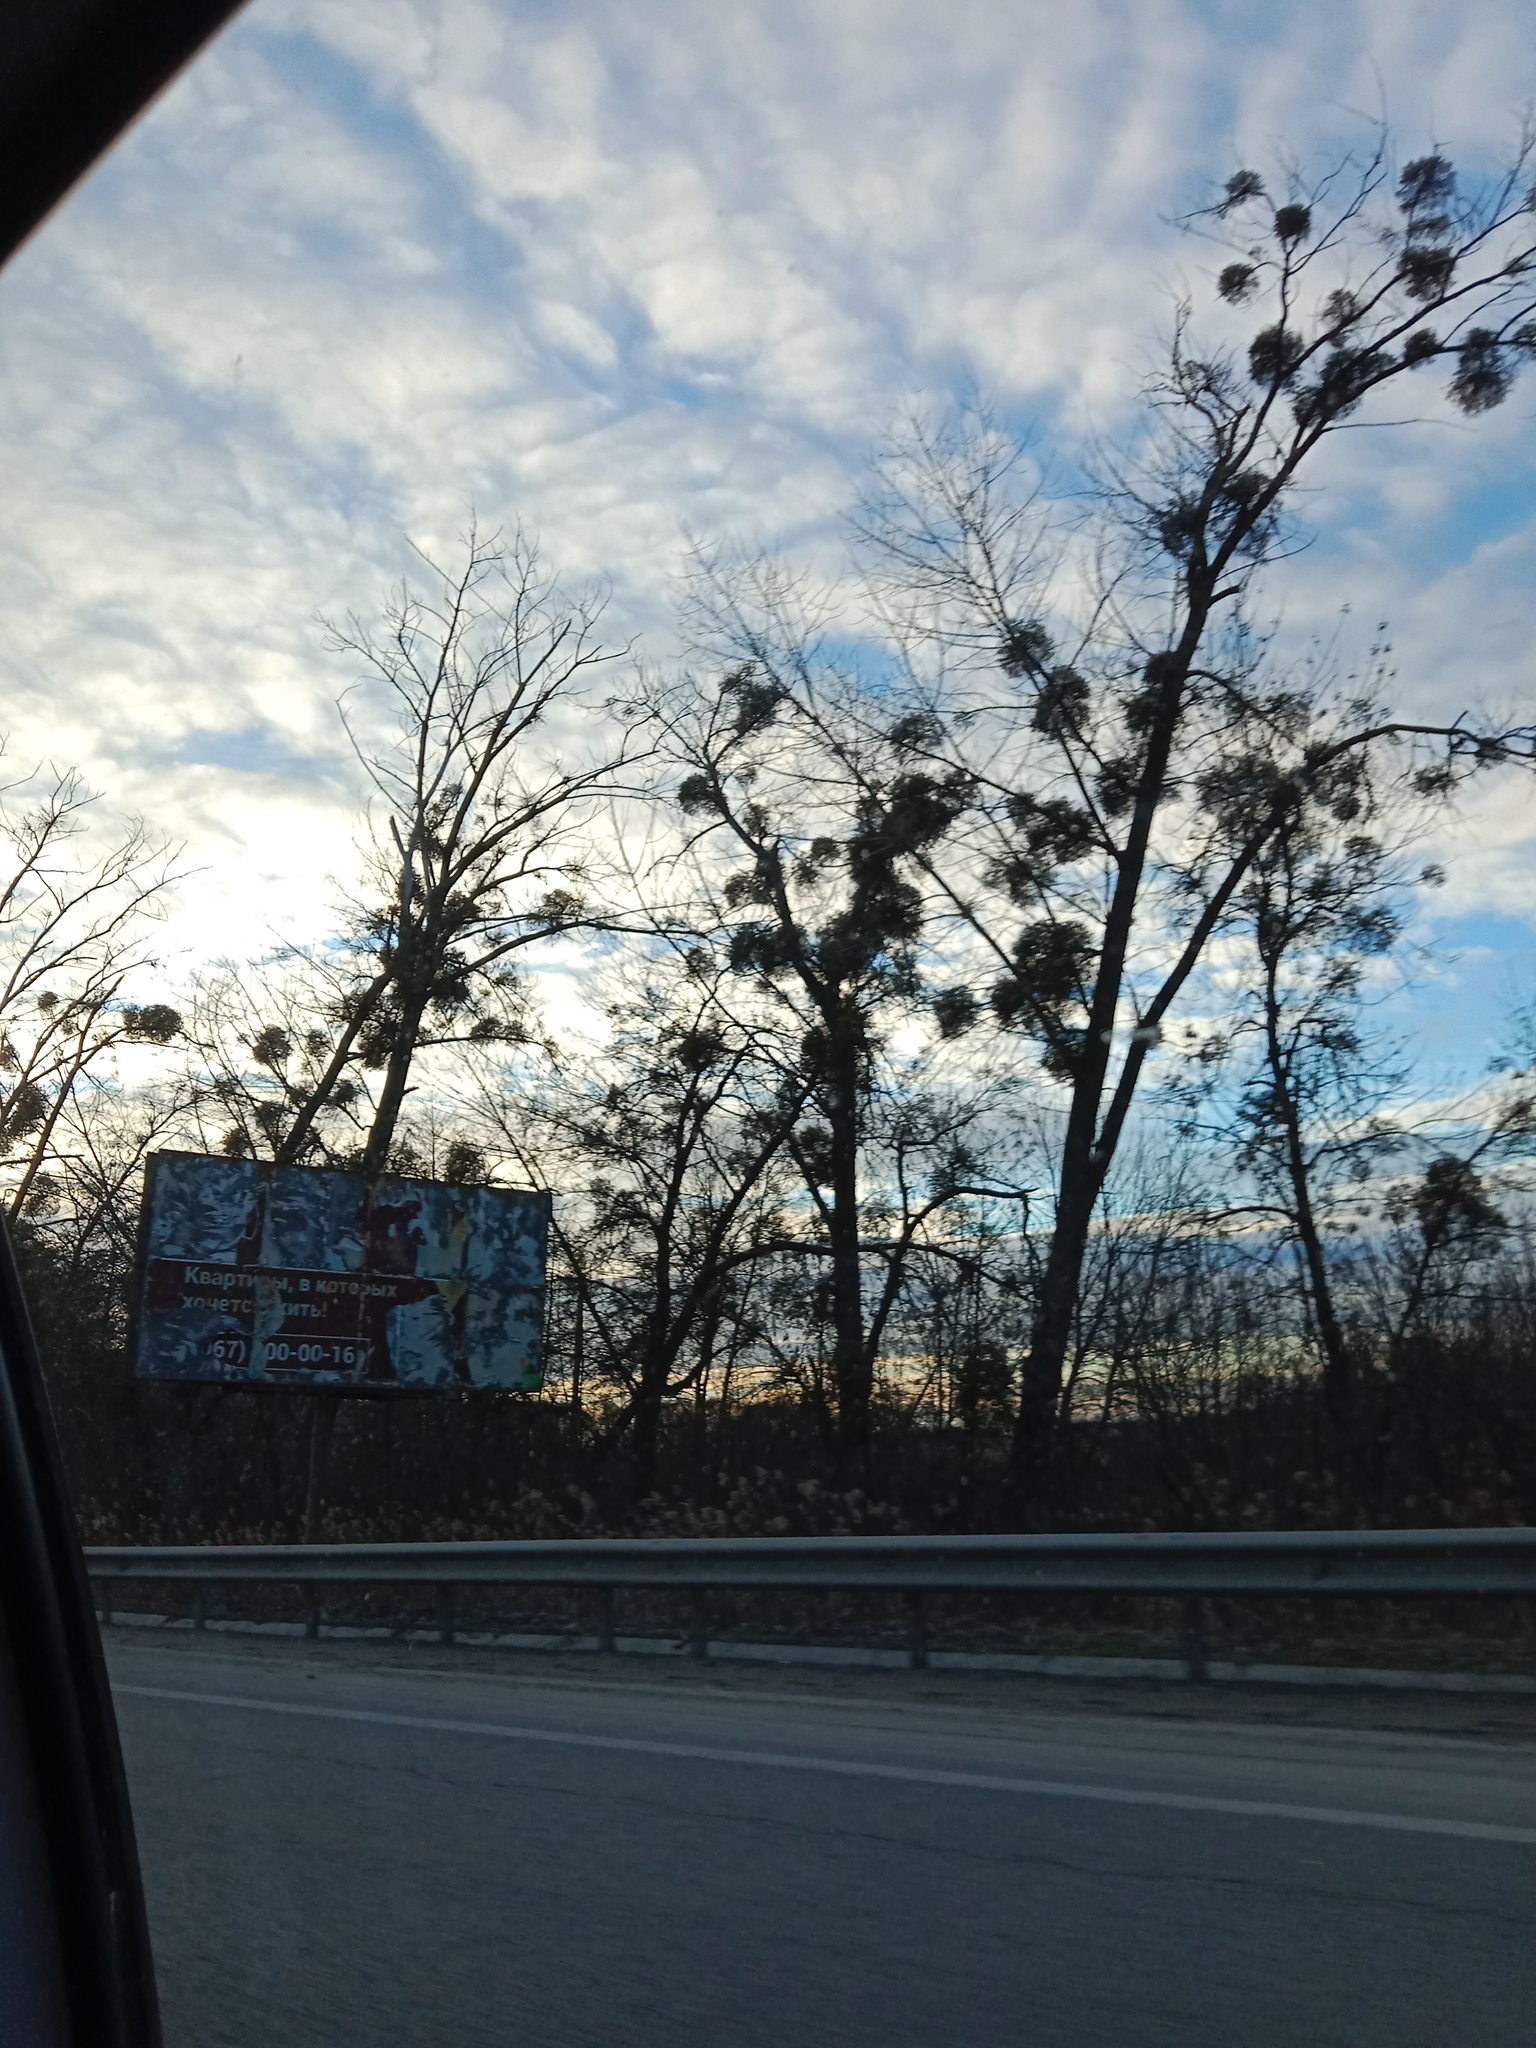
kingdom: Plantae
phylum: Tracheophyta
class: Magnoliopsida
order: Santalales
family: Viscaceae
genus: Viscum
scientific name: Viscum album
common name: Mistletoe
